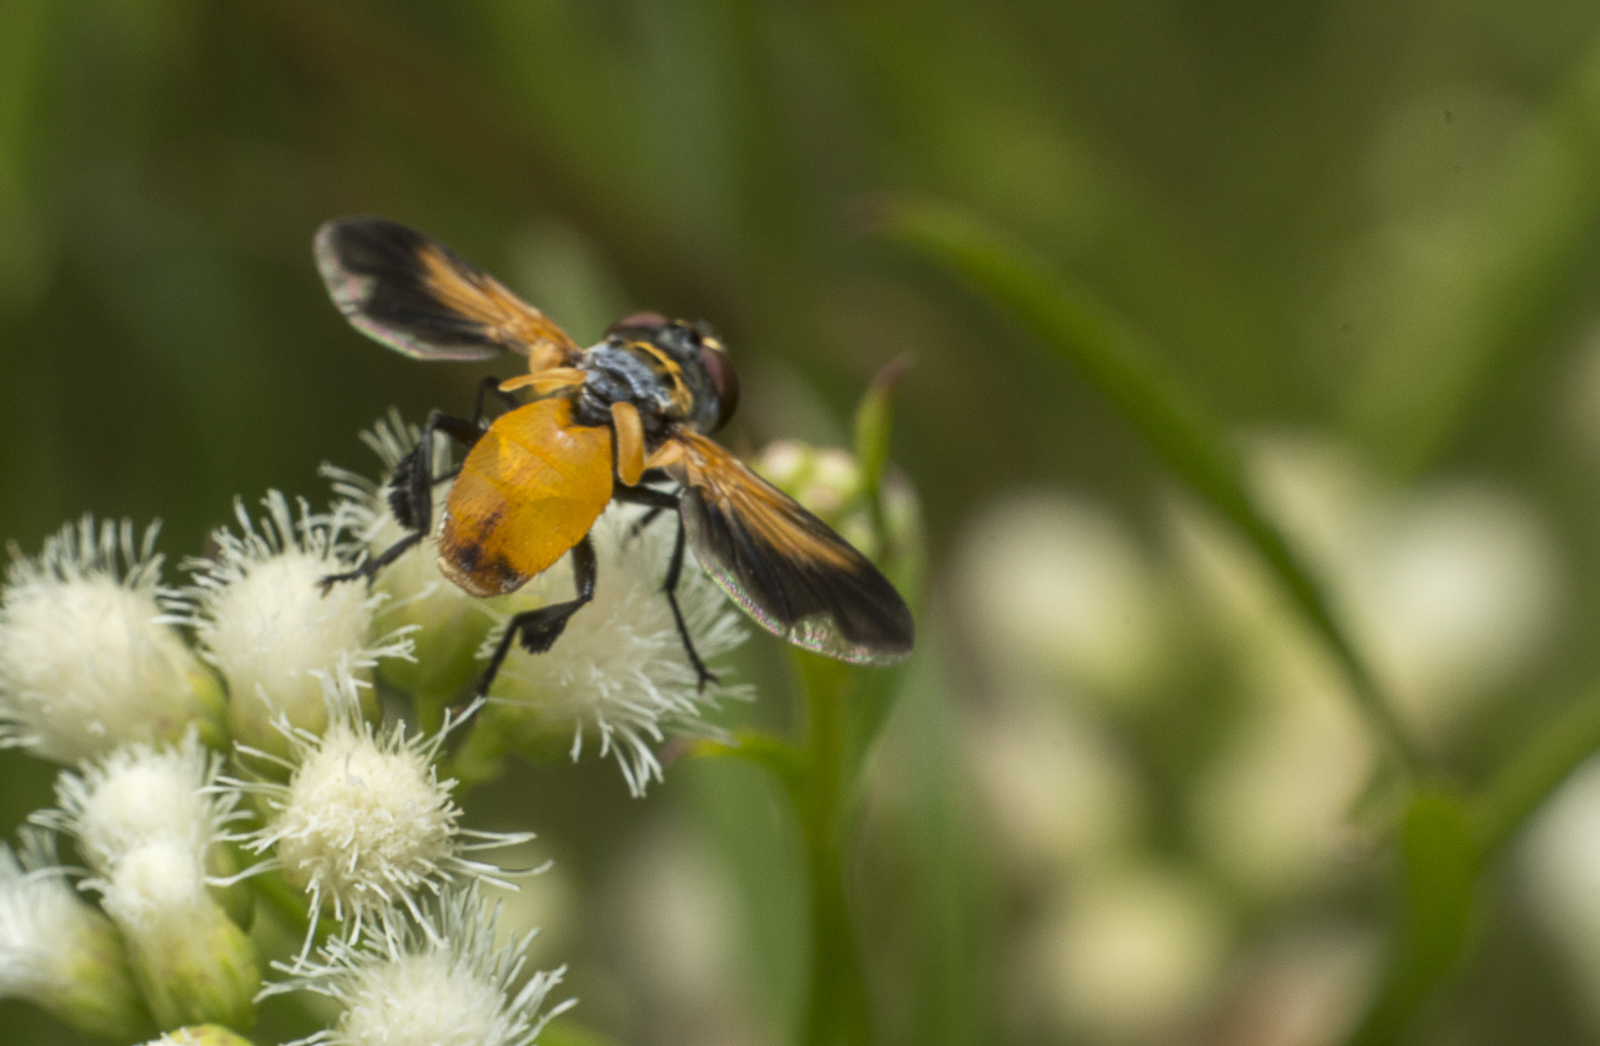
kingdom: Animalia
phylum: Arthropoda
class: Insecta
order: Diptera
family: Tachinidae
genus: Trichopoda
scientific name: Trichopoda pennipes
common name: Tachinid fly
